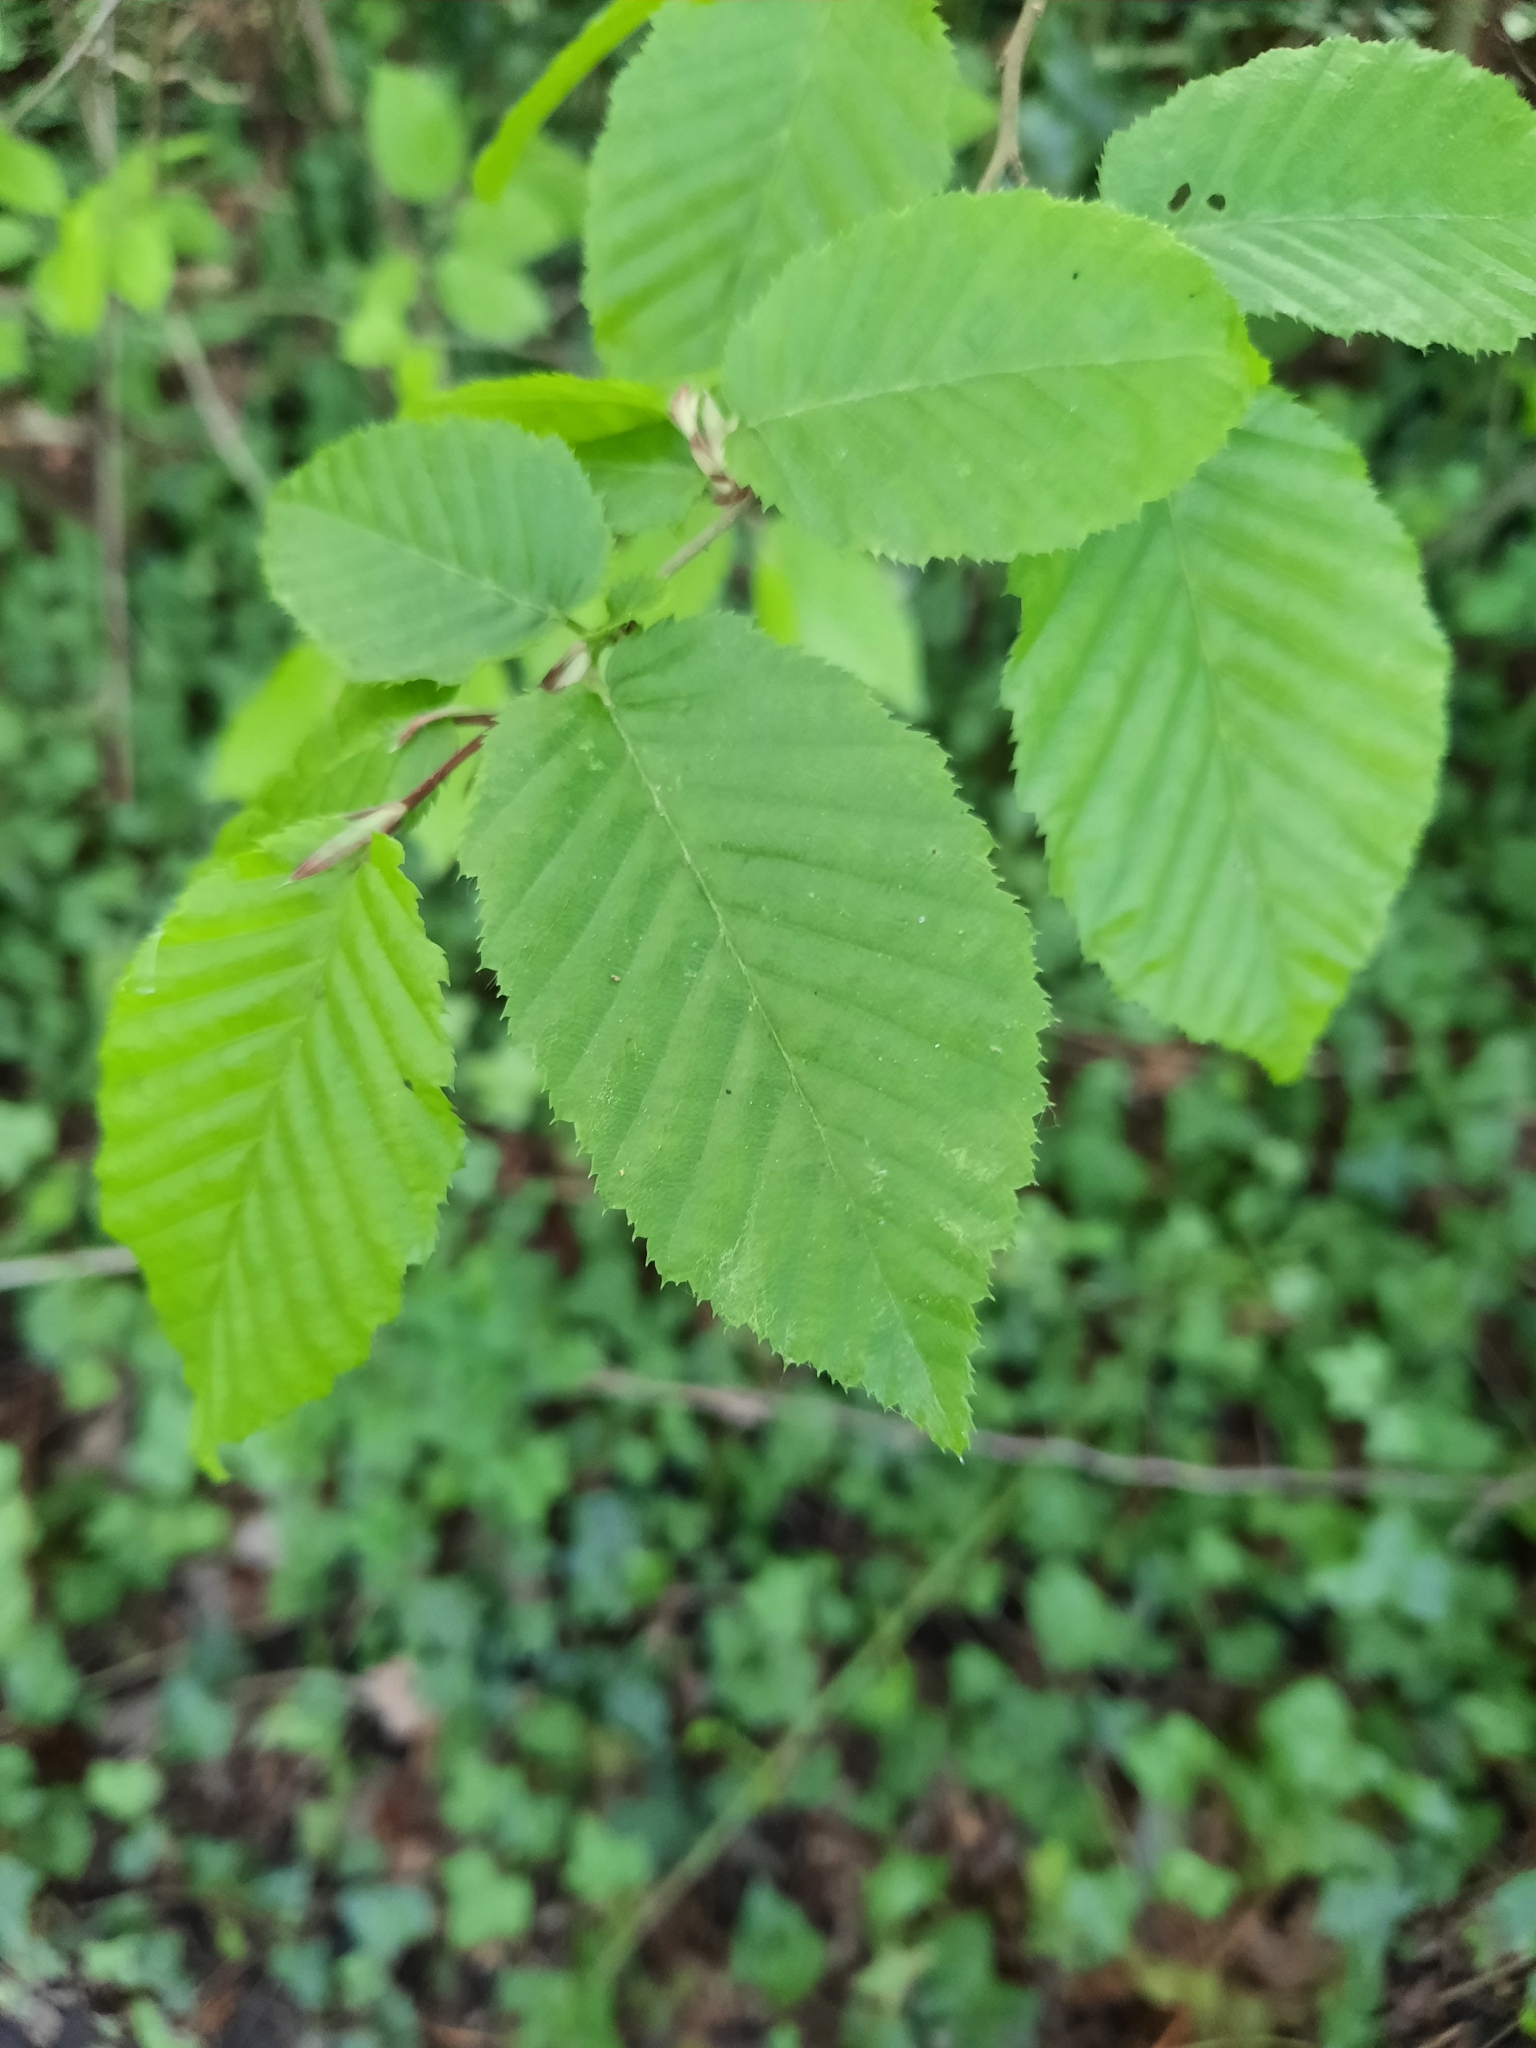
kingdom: Plantae
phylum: Tracheophyta
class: Magnoliopsida
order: Fagales
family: Betulaceae
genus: Carpinus
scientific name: Carpinus betulus
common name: Hornbeam
